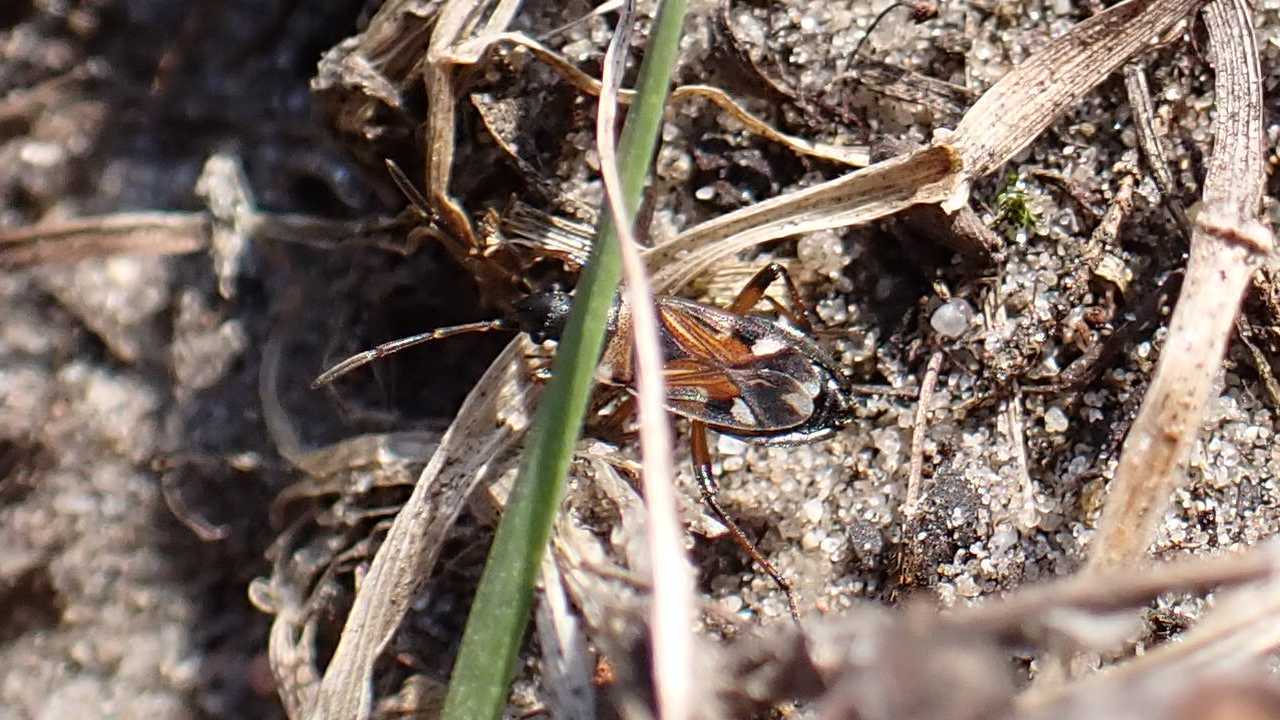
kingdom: Animalia
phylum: Arthropoda
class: Insecta
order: Hemiptera
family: Rhyparochromidae
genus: Raglius
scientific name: Raglius alboacuminatus
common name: Dirt-colored seed bug
